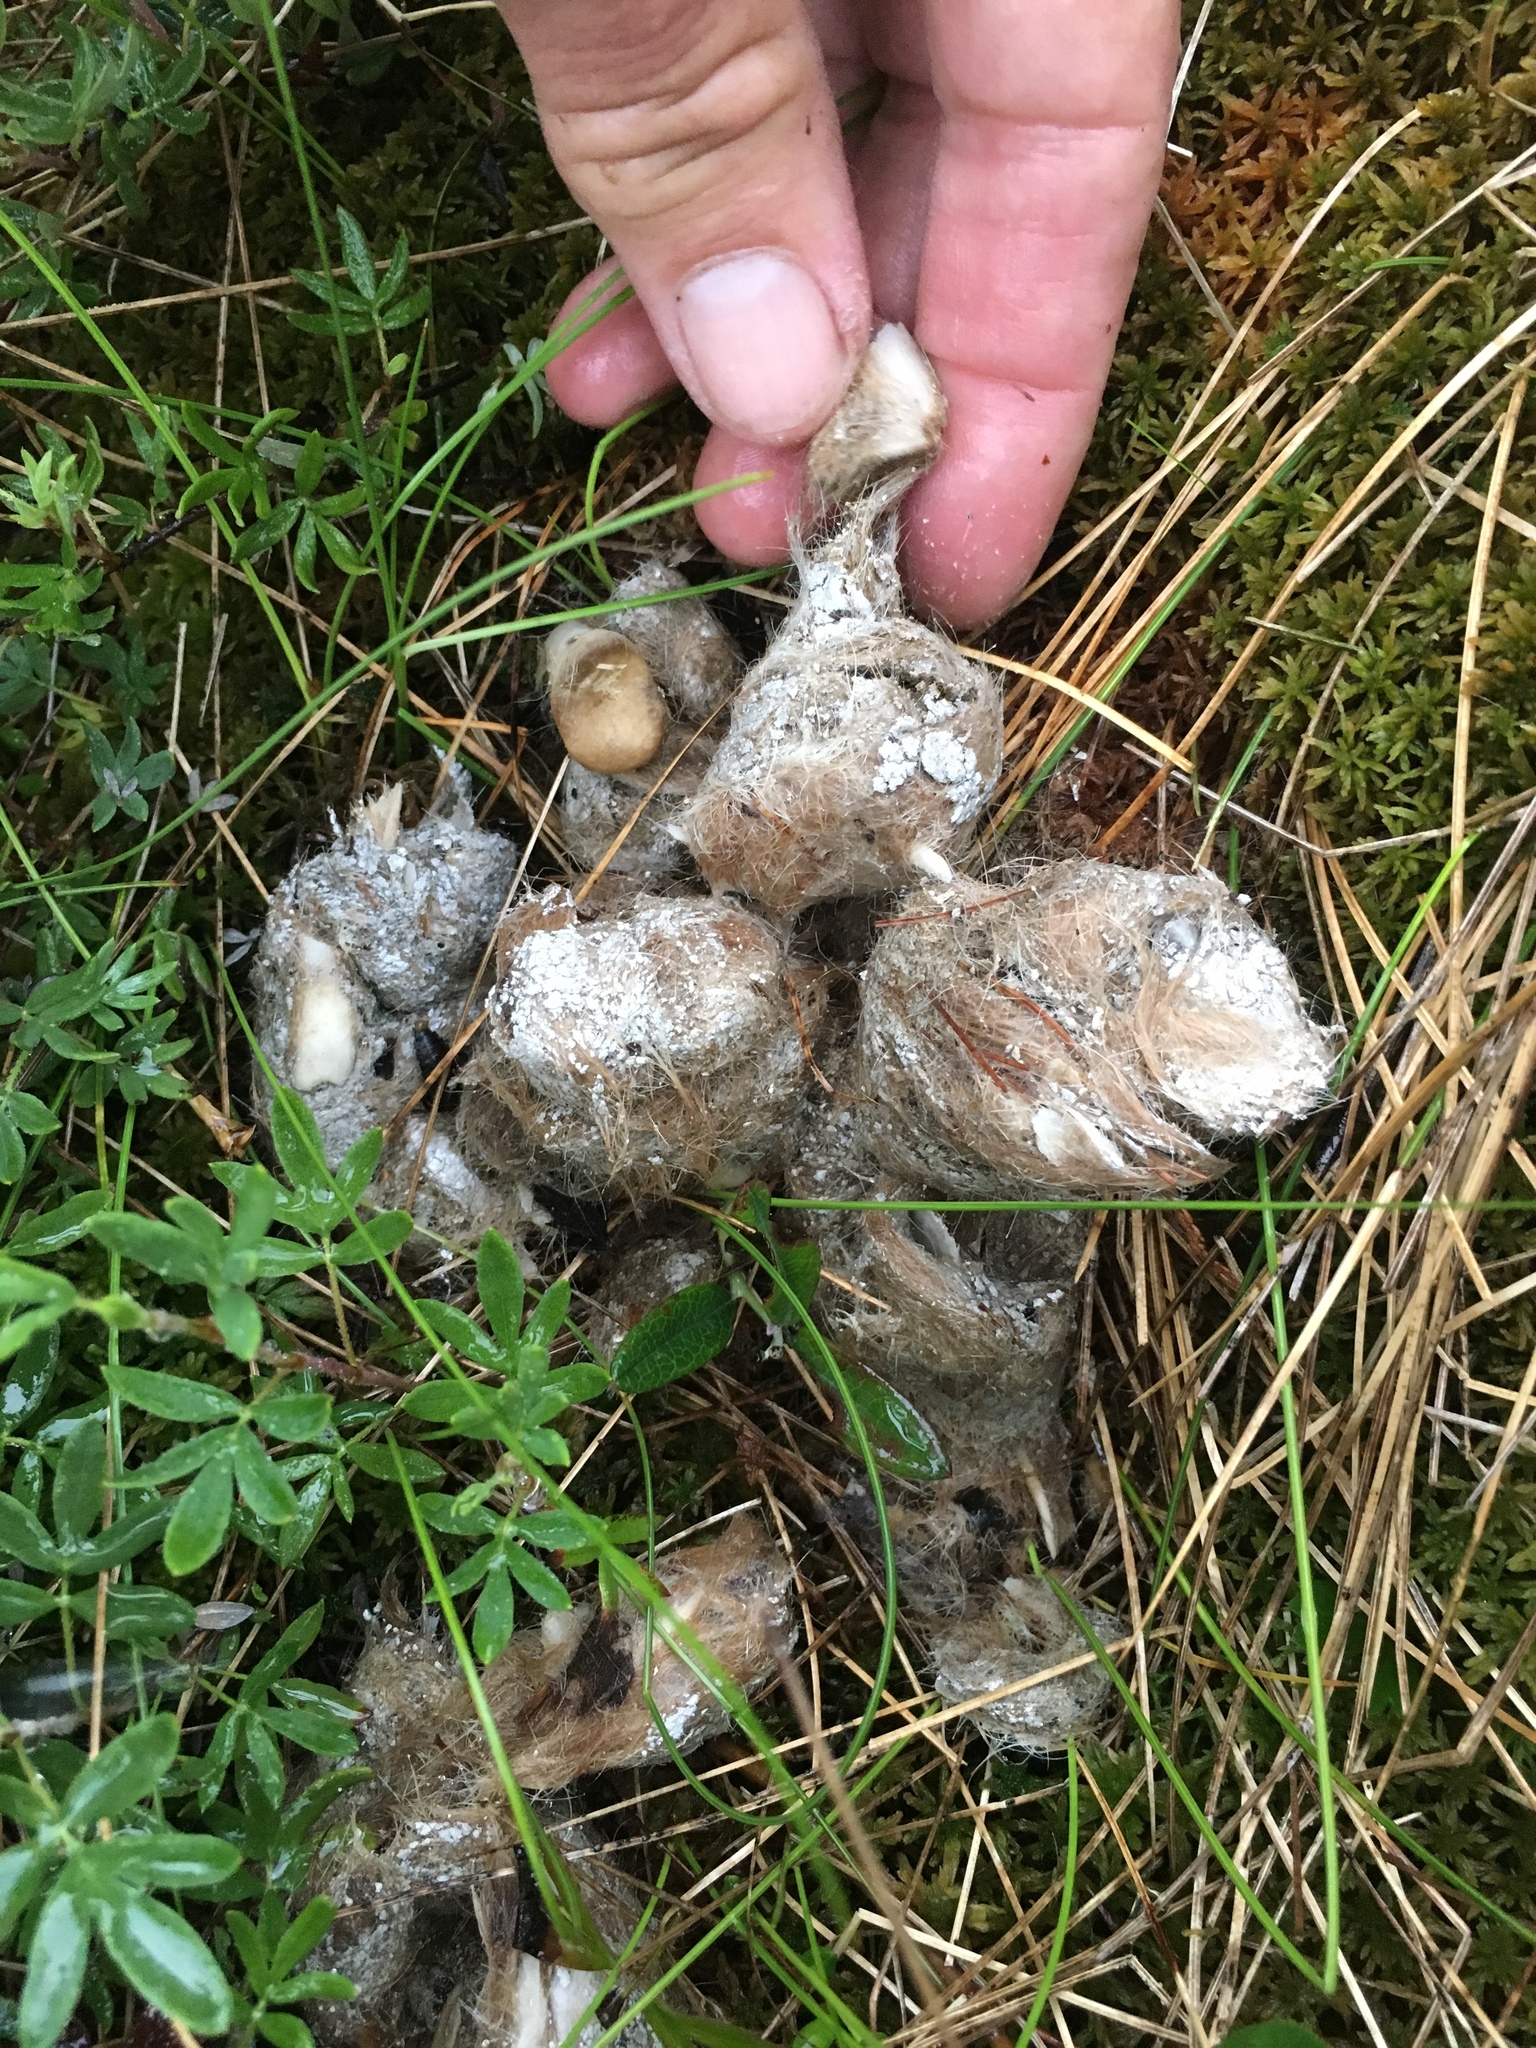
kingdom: Animalia
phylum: Chordata
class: Mammalia
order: Carnivora
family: Canidae
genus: Canis
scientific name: Canis lupus
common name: Gray wolf
